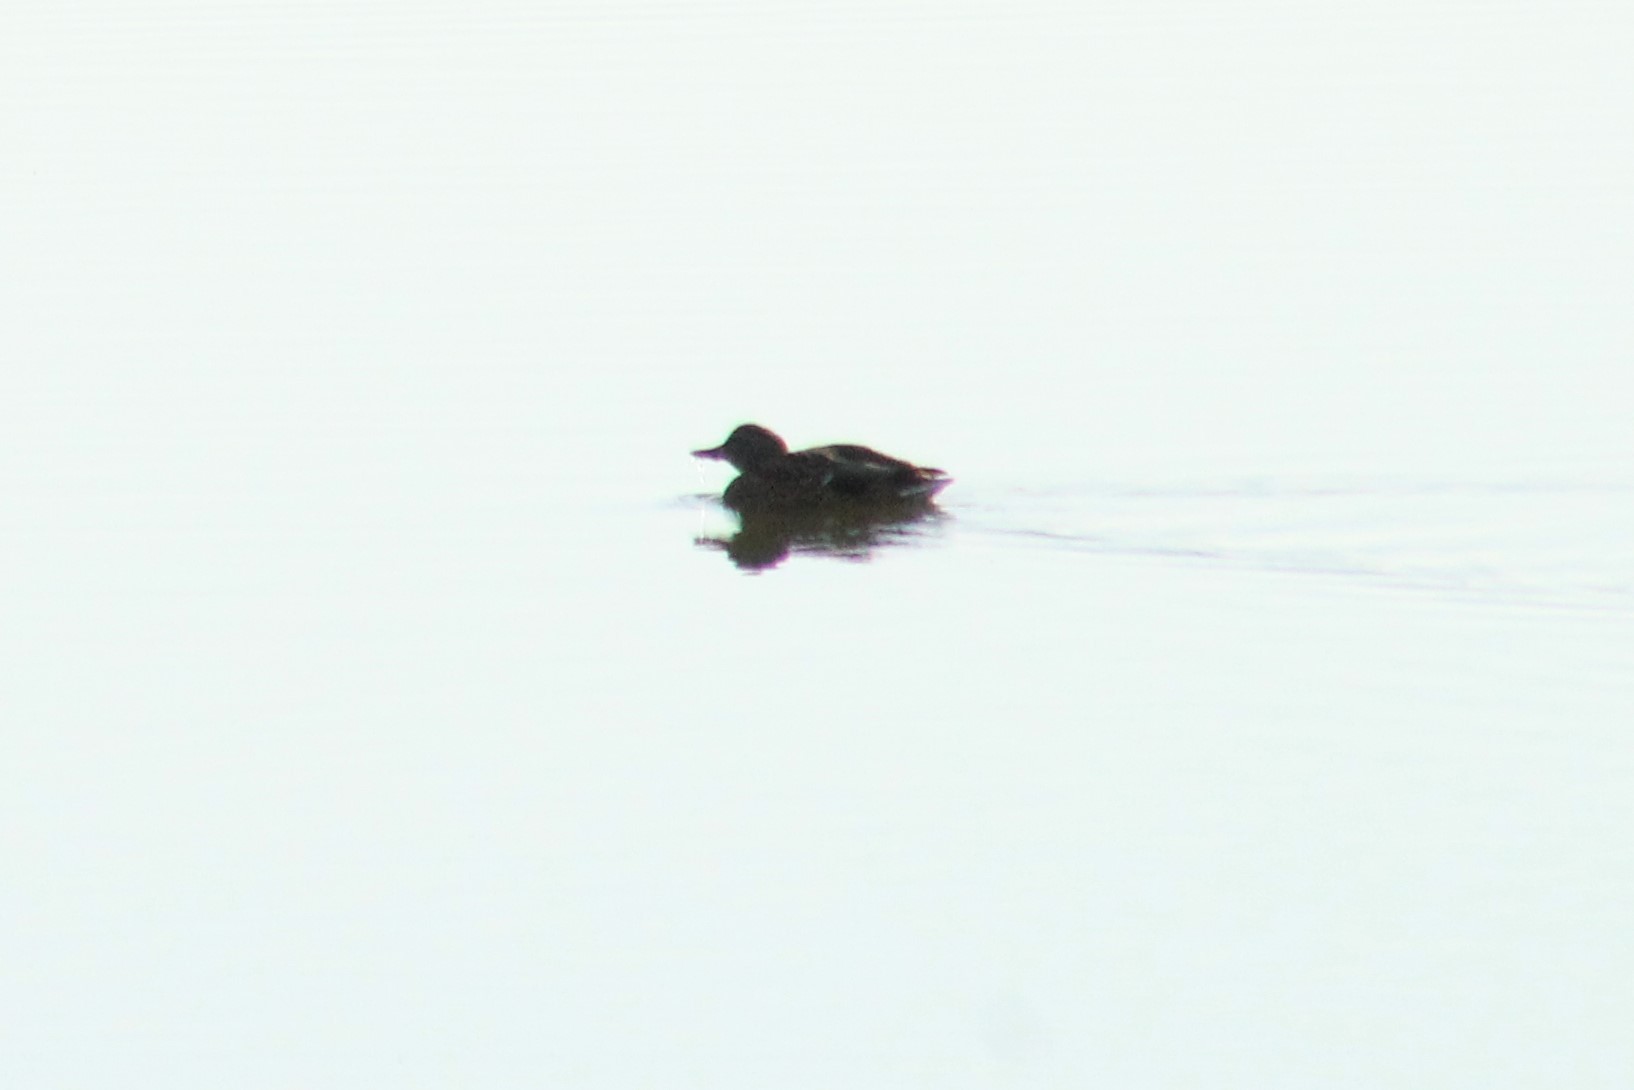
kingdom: Animalia
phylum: Chordata
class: Aves
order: Anseriformes
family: Anatidae
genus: Anas
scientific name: Anas platyrhynchos
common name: Mallard
